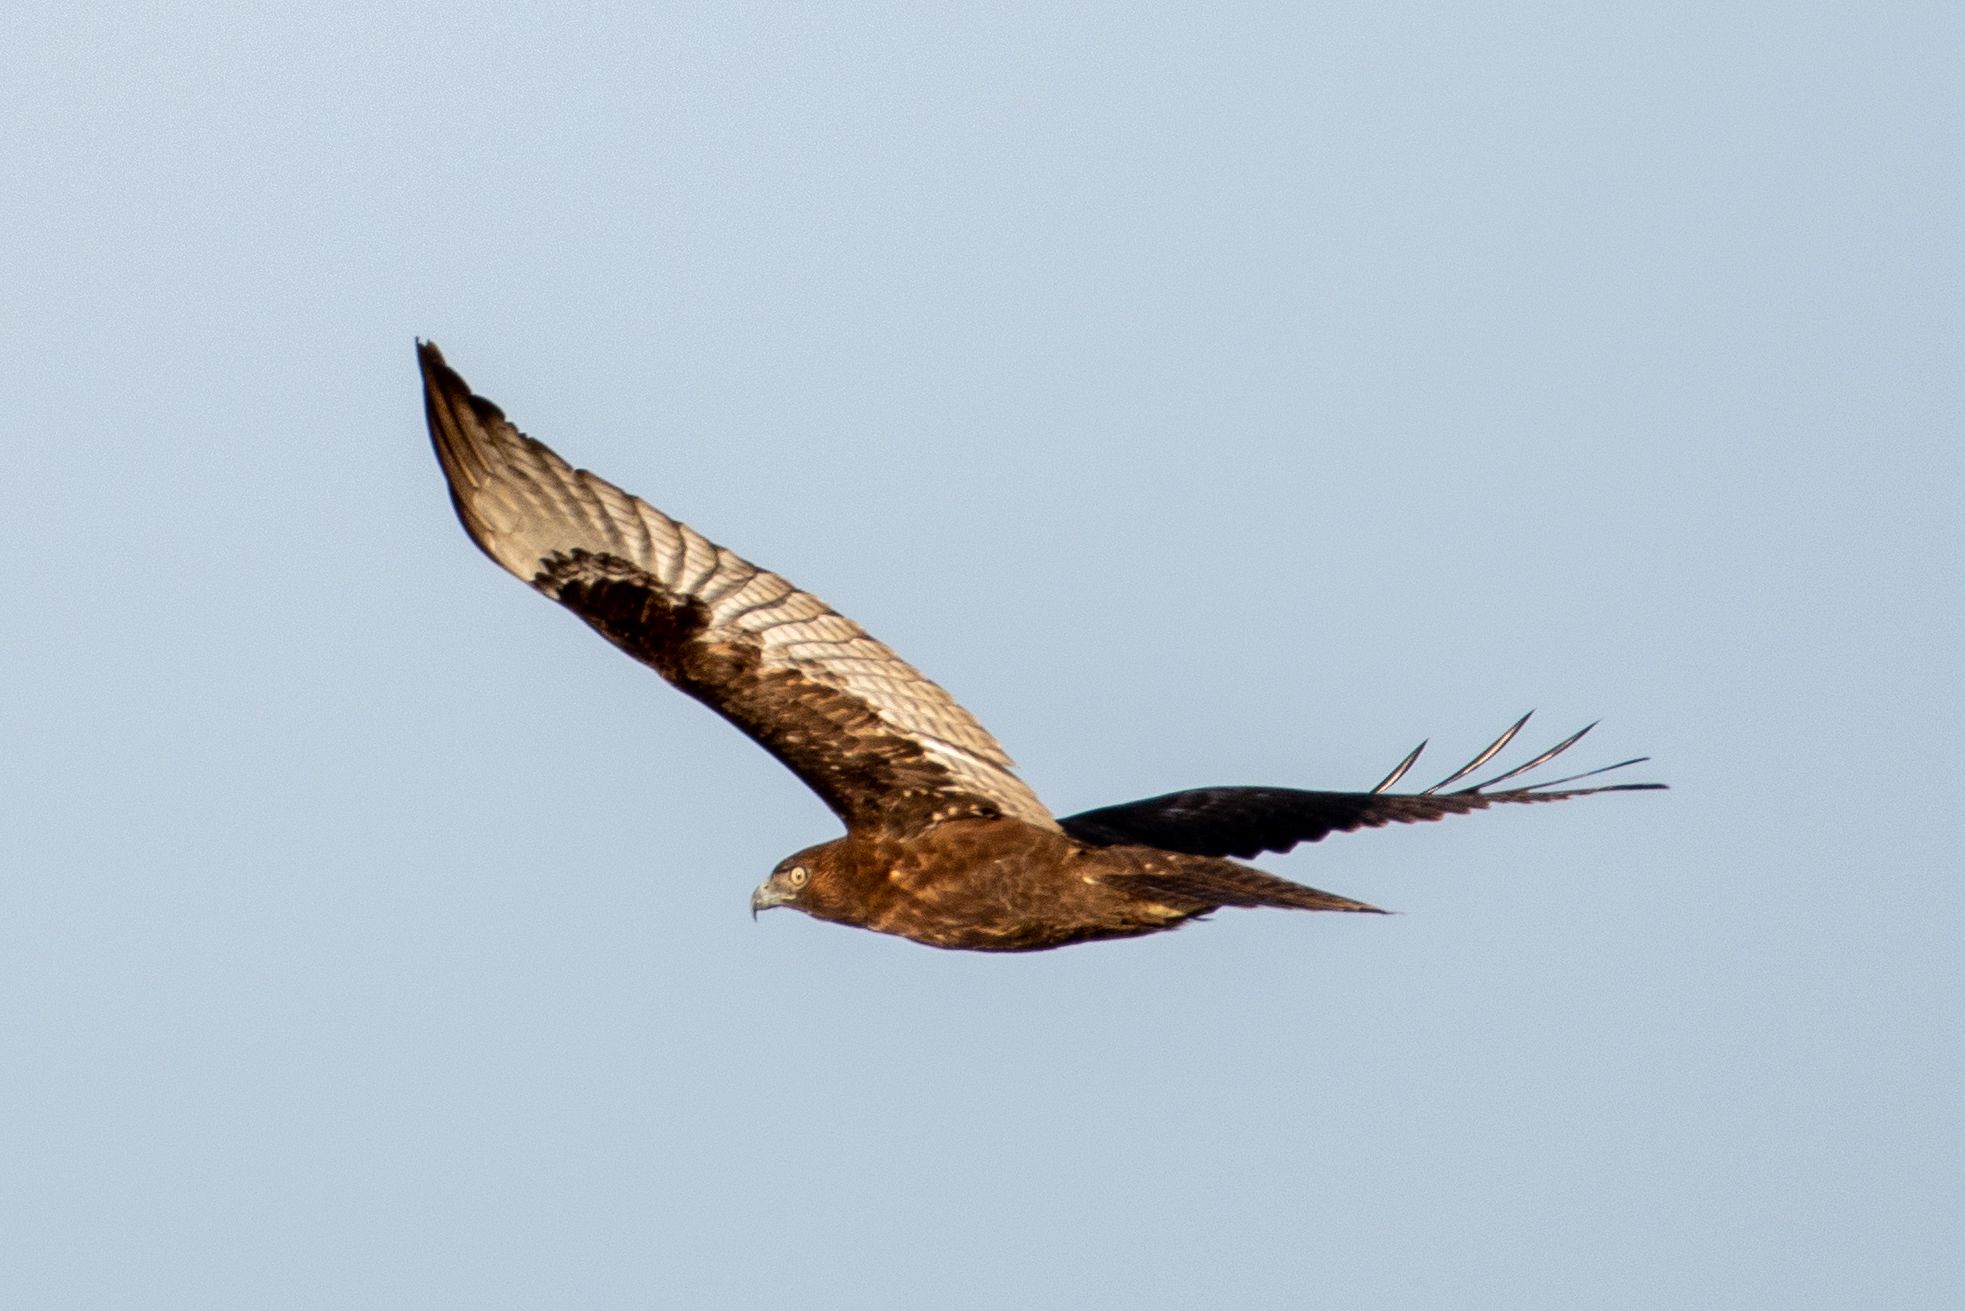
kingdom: Animalia
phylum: Chordata
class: Aves
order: Accipitriformes
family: Accipitridae
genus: Buteo
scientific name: Buteo jamaicensis
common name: Red-tailed hawk
